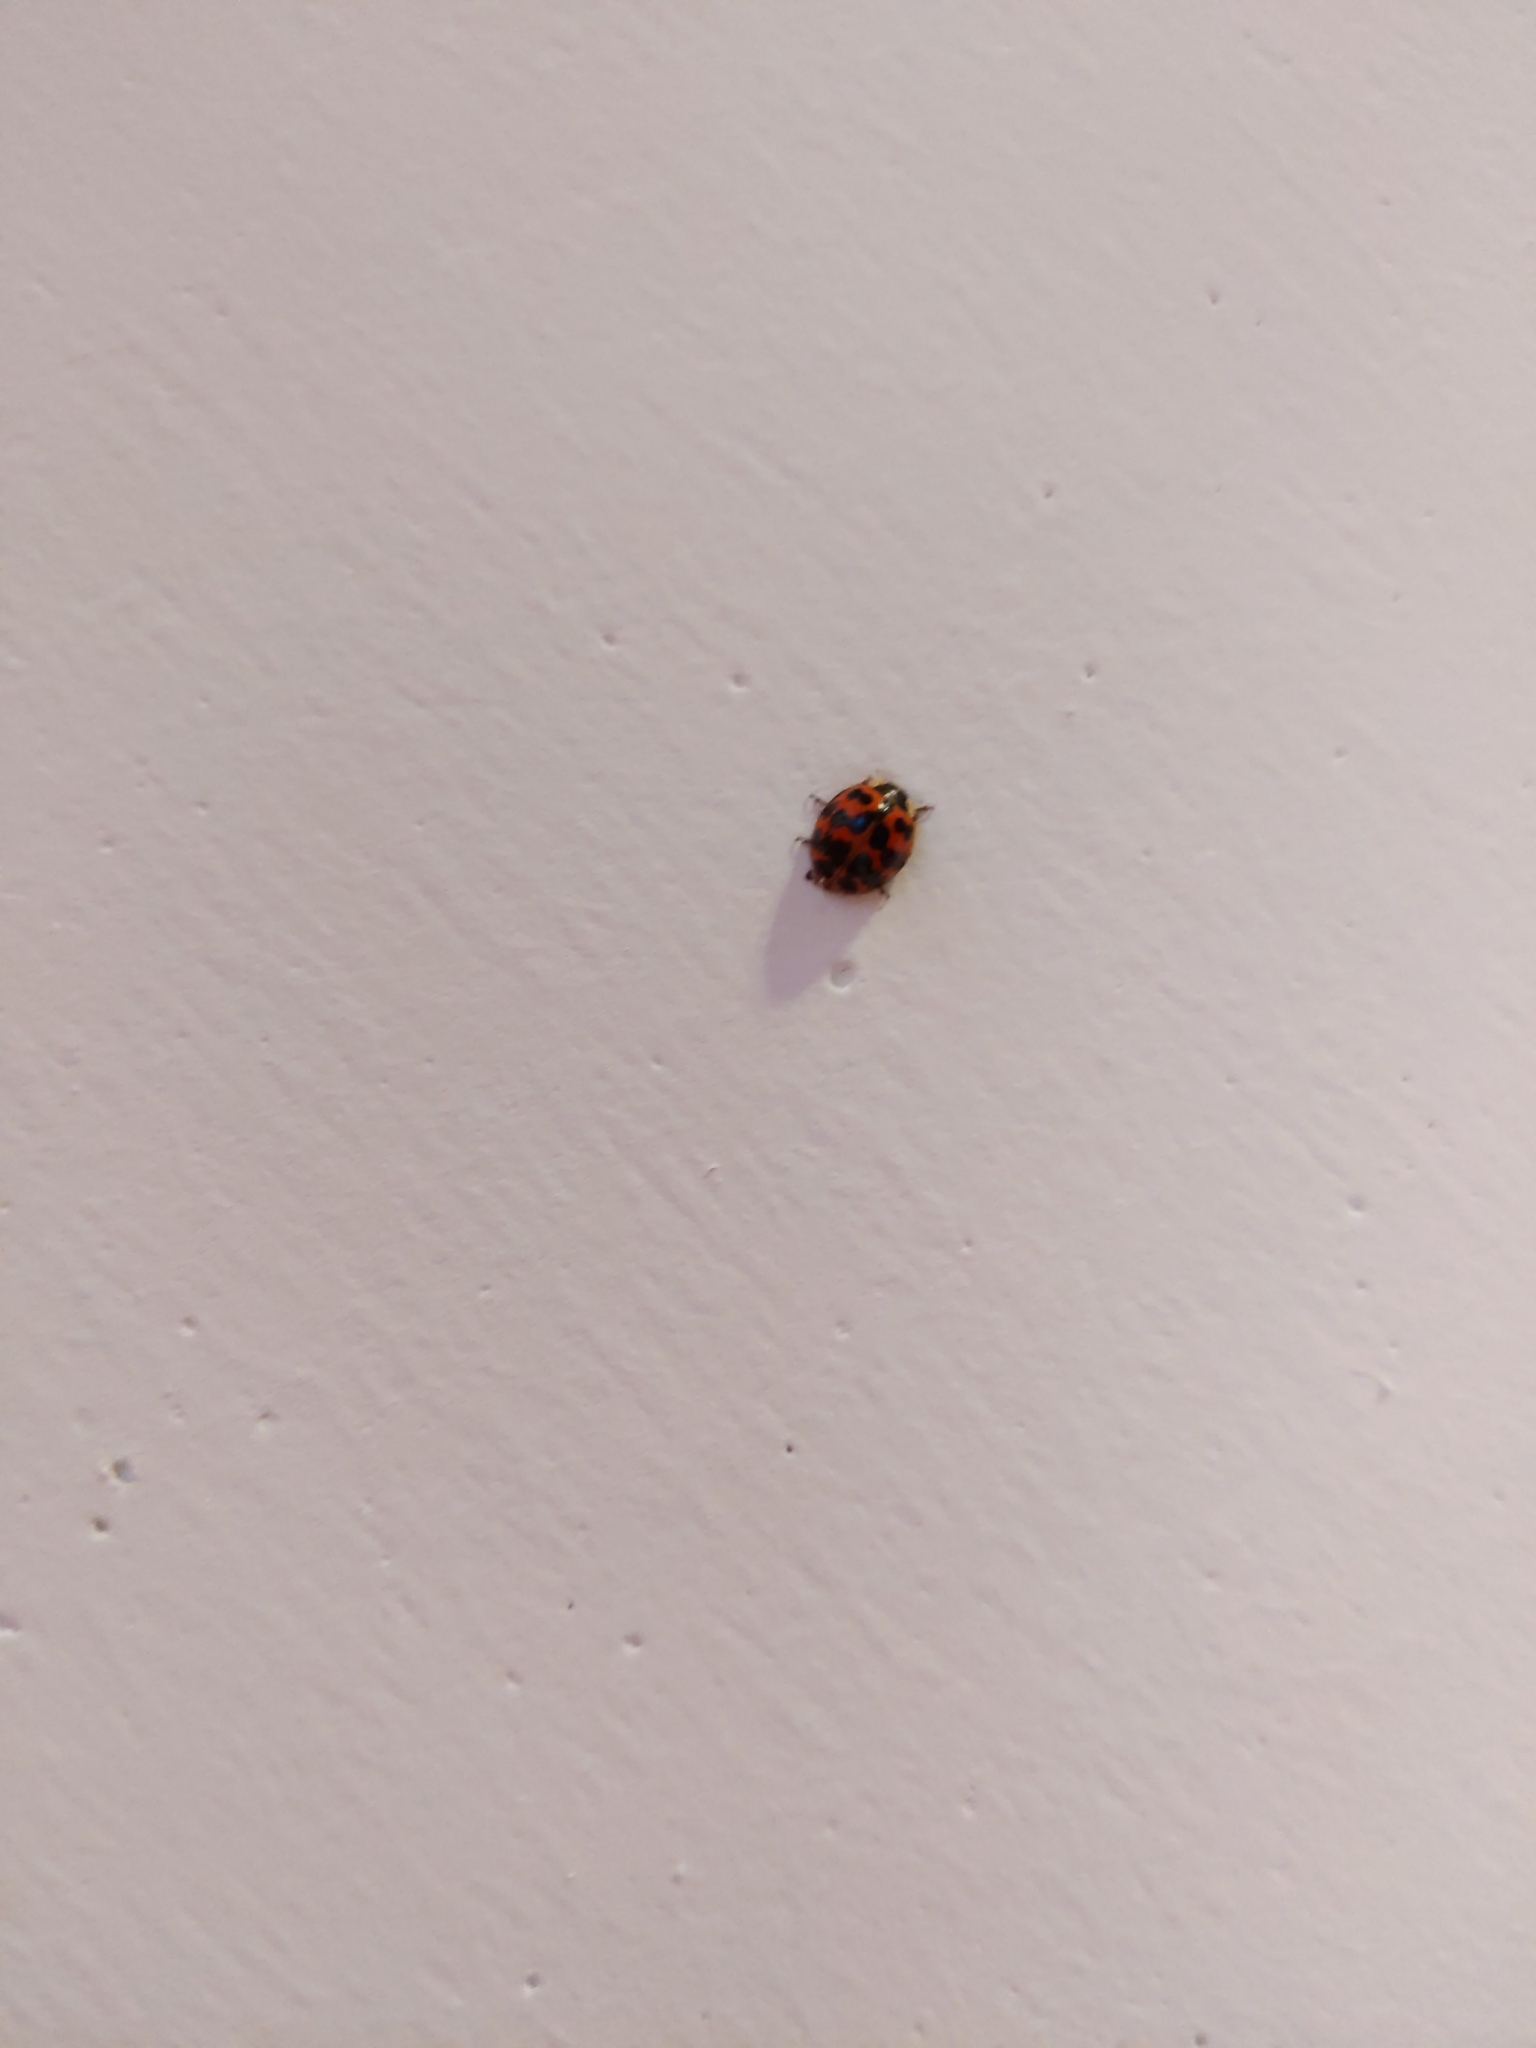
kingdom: Animalia
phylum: Arthropoda
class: Insecta
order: Coleoptera
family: Coccinellidae
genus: Harmonia
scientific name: Harmonia axyridis
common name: Harlequin ladybird
